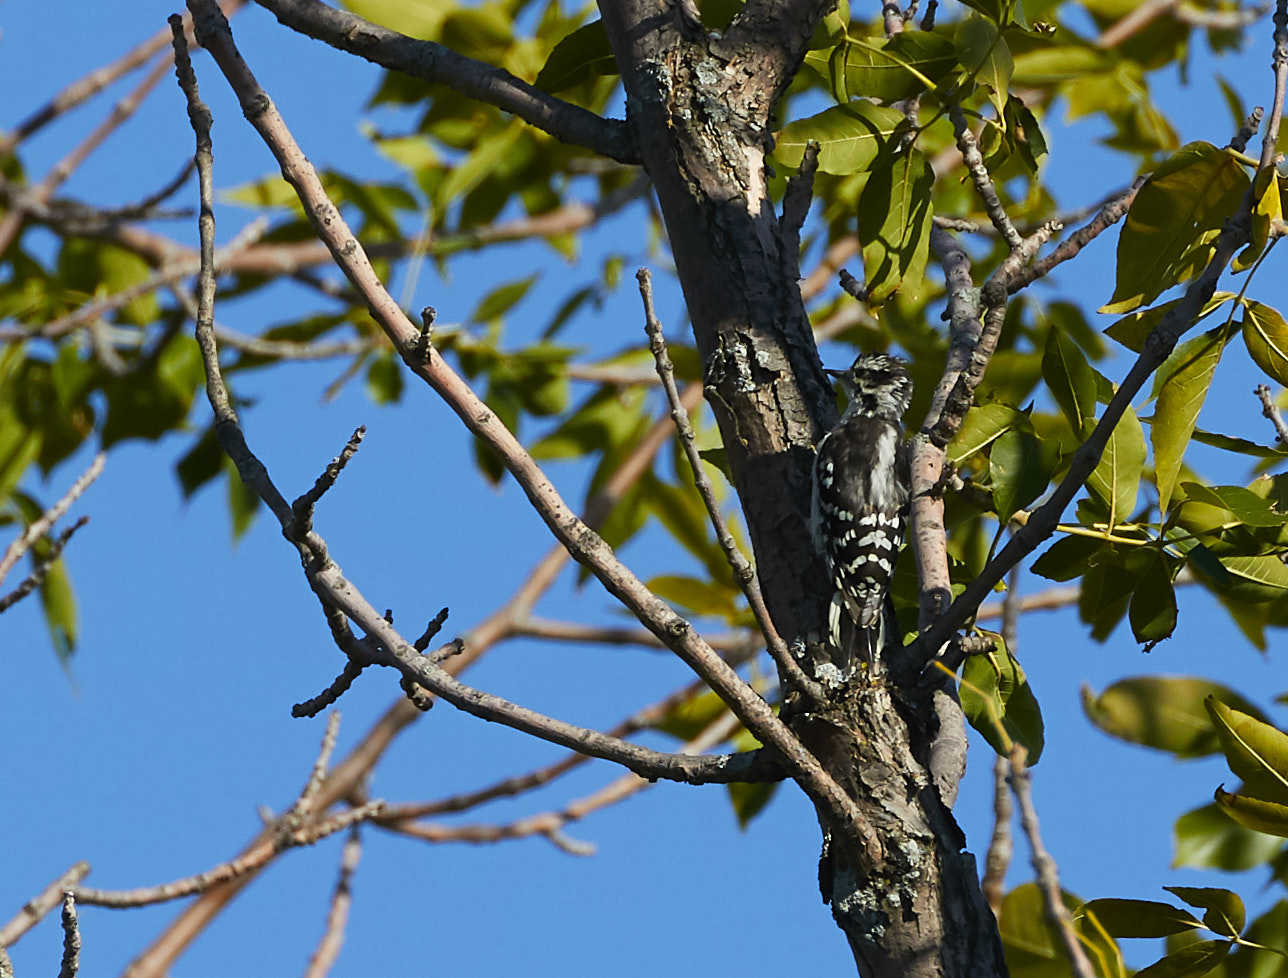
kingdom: Animalia
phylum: Chordata
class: Aves
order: Piciformes
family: Picidae
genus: Dryobates
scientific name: Dryobates pubescens
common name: Downy woodpecker
